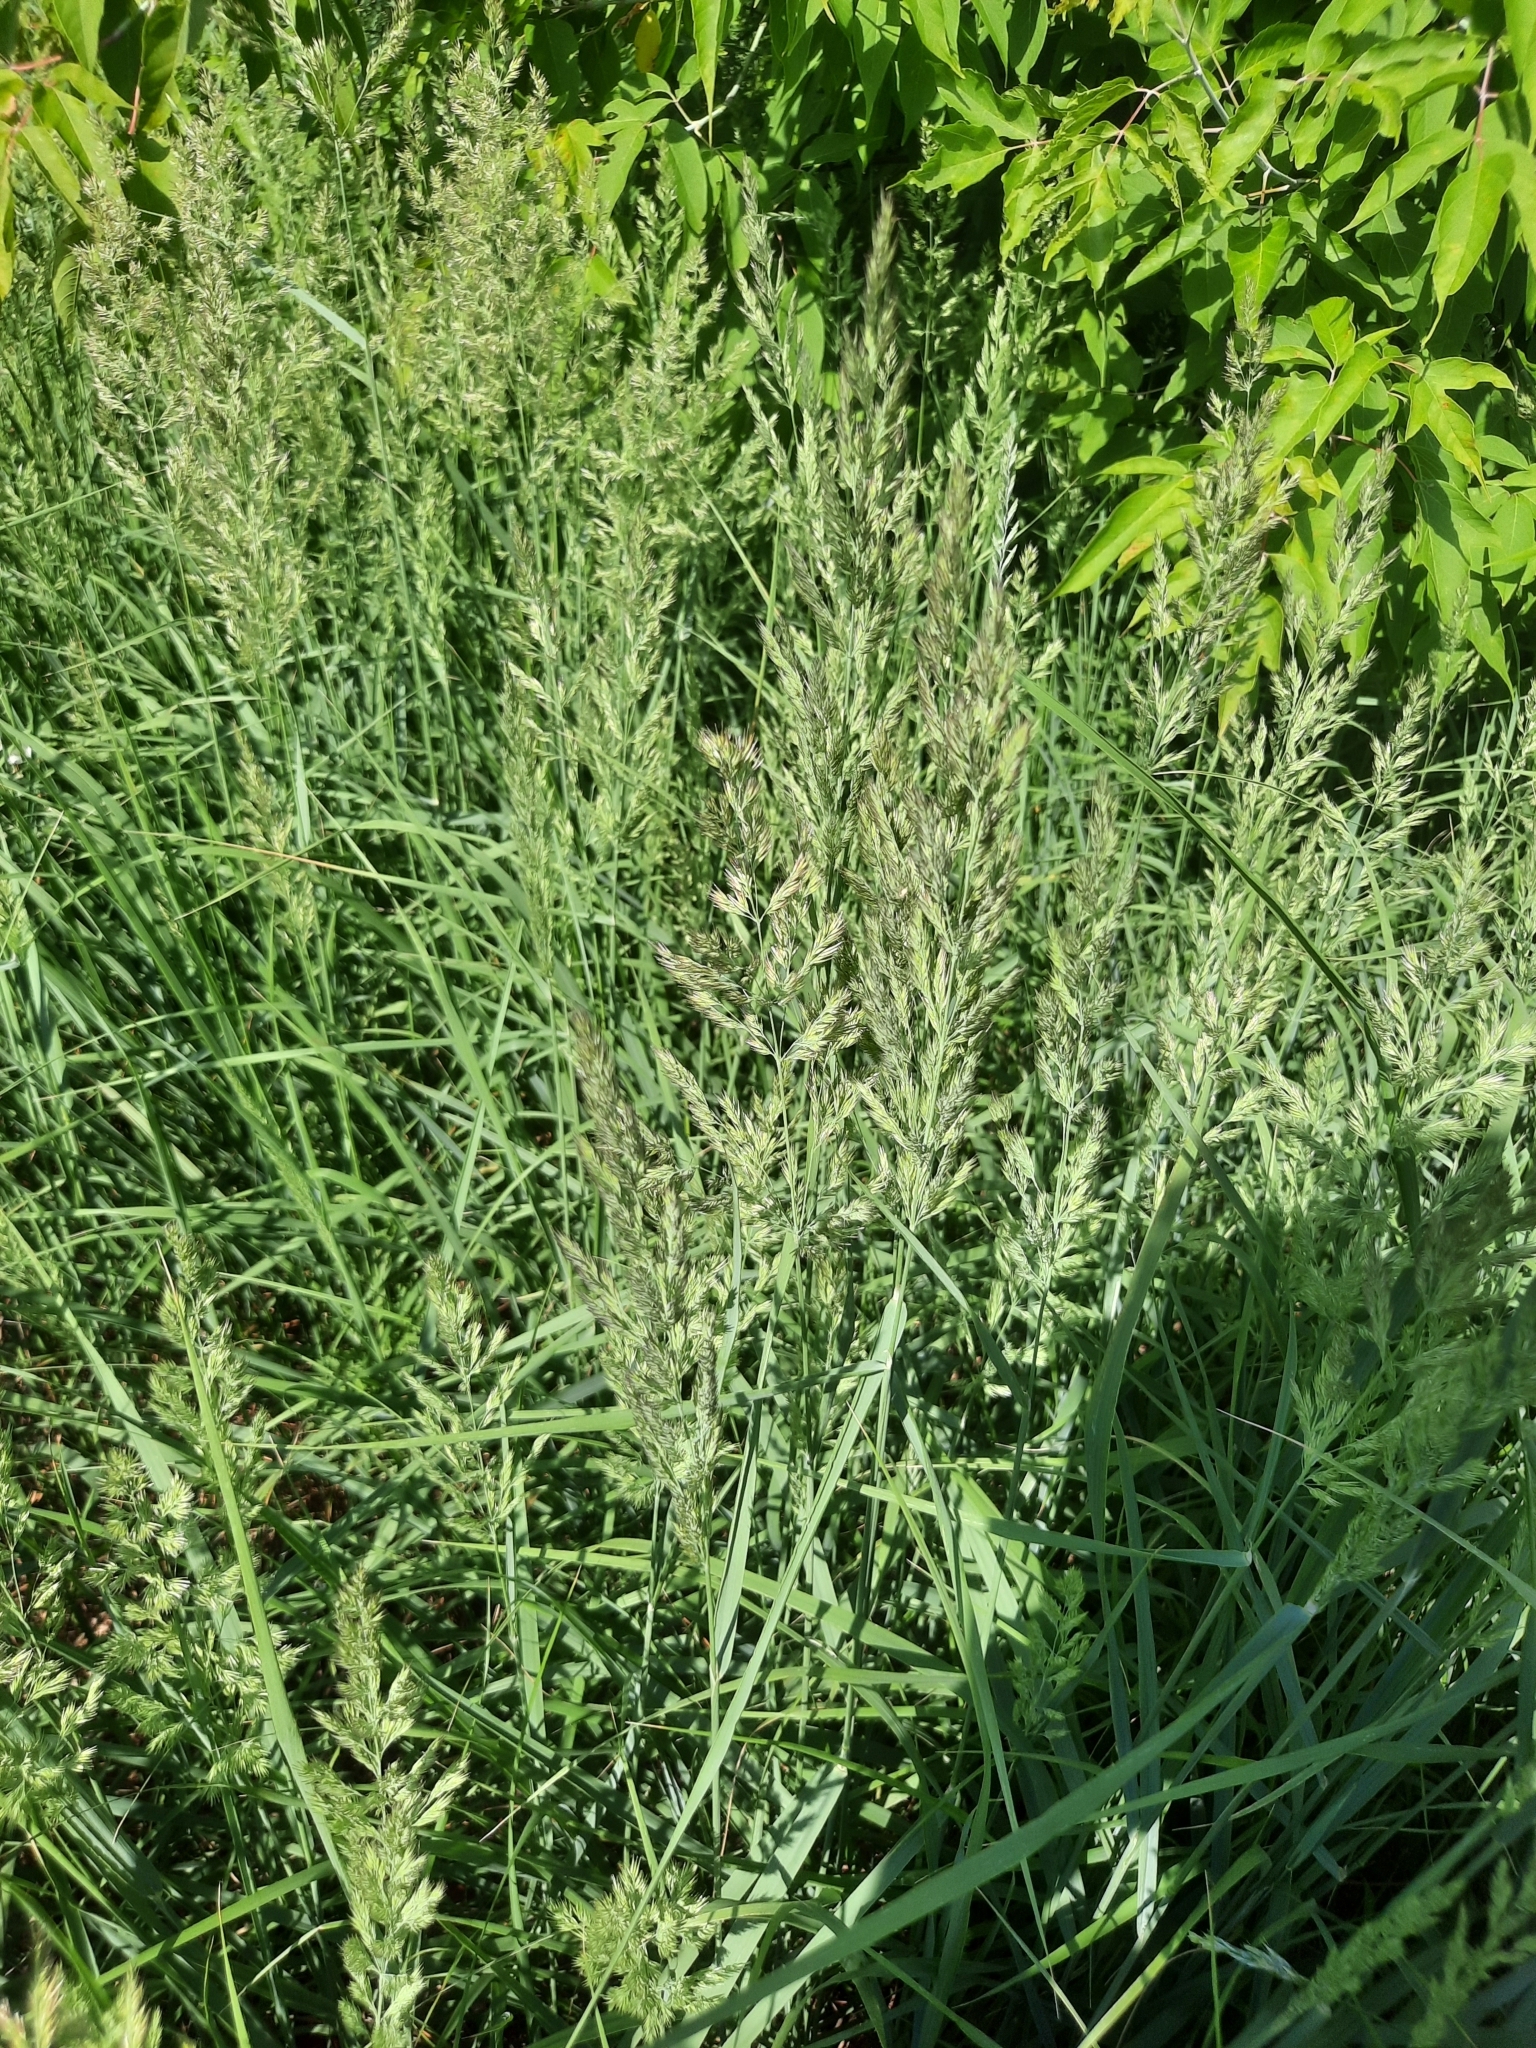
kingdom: Plantae
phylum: Tracheophyta
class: Liliopsida
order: Poales
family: Poaceae
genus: Calamagrostis
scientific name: Calamagrostis epigejos
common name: Wood small-reed
